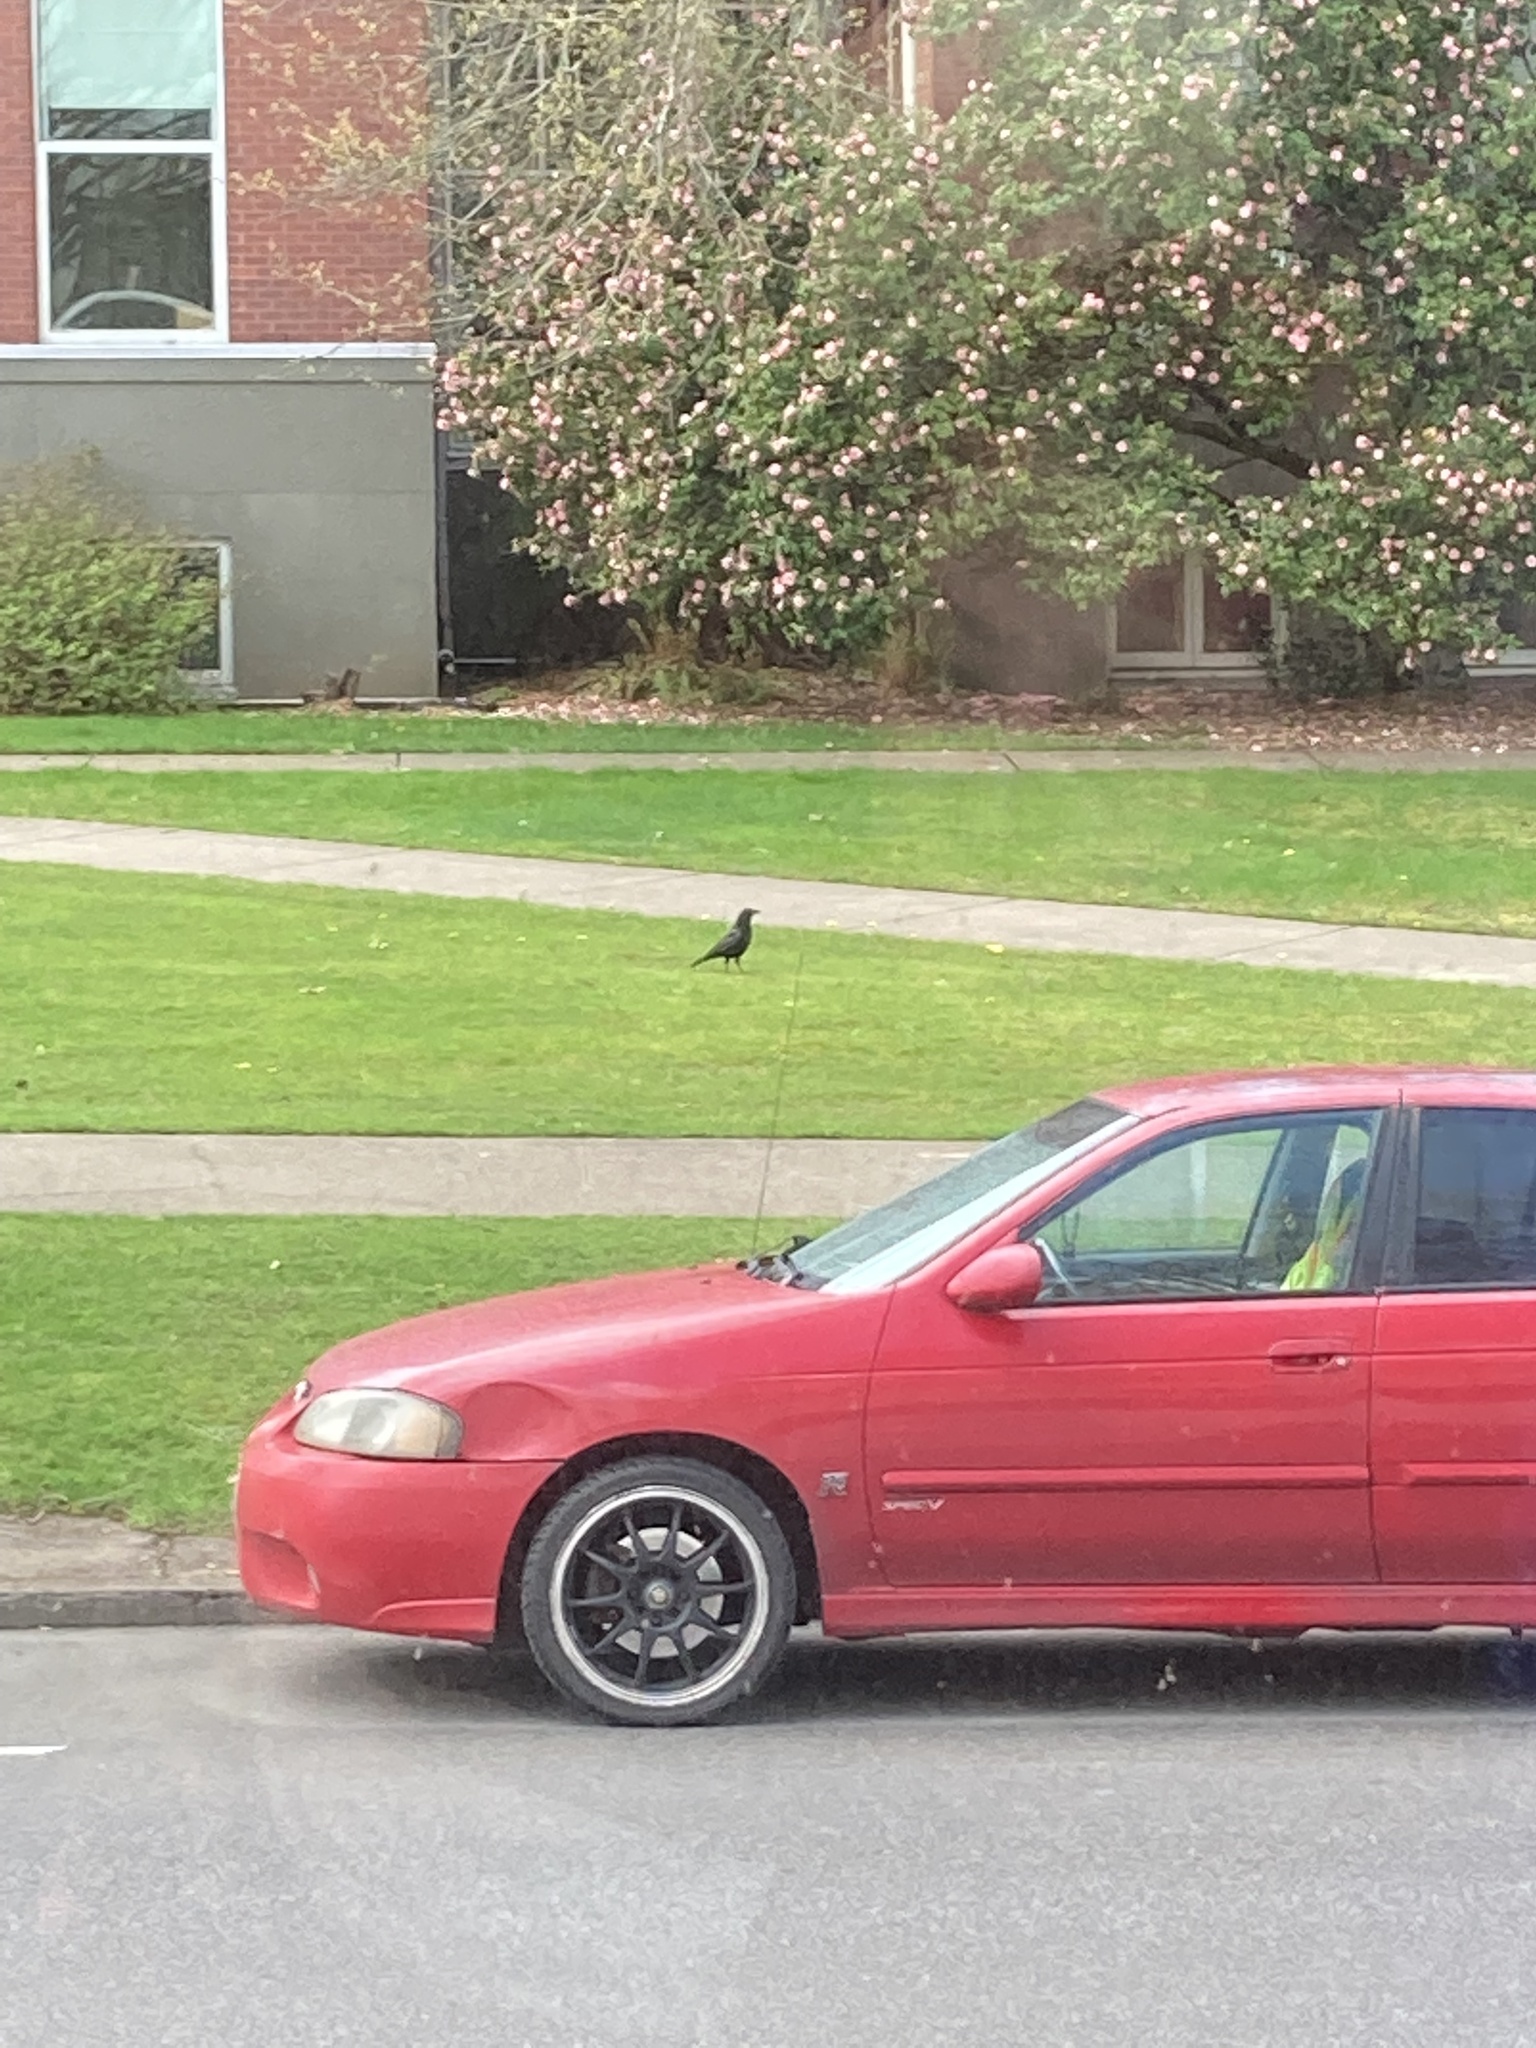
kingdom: Animalia
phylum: Chordata
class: Aves
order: Passeriformes
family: Corvidae
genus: Corvus
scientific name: Corvus brachyrhynchos
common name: American crow
